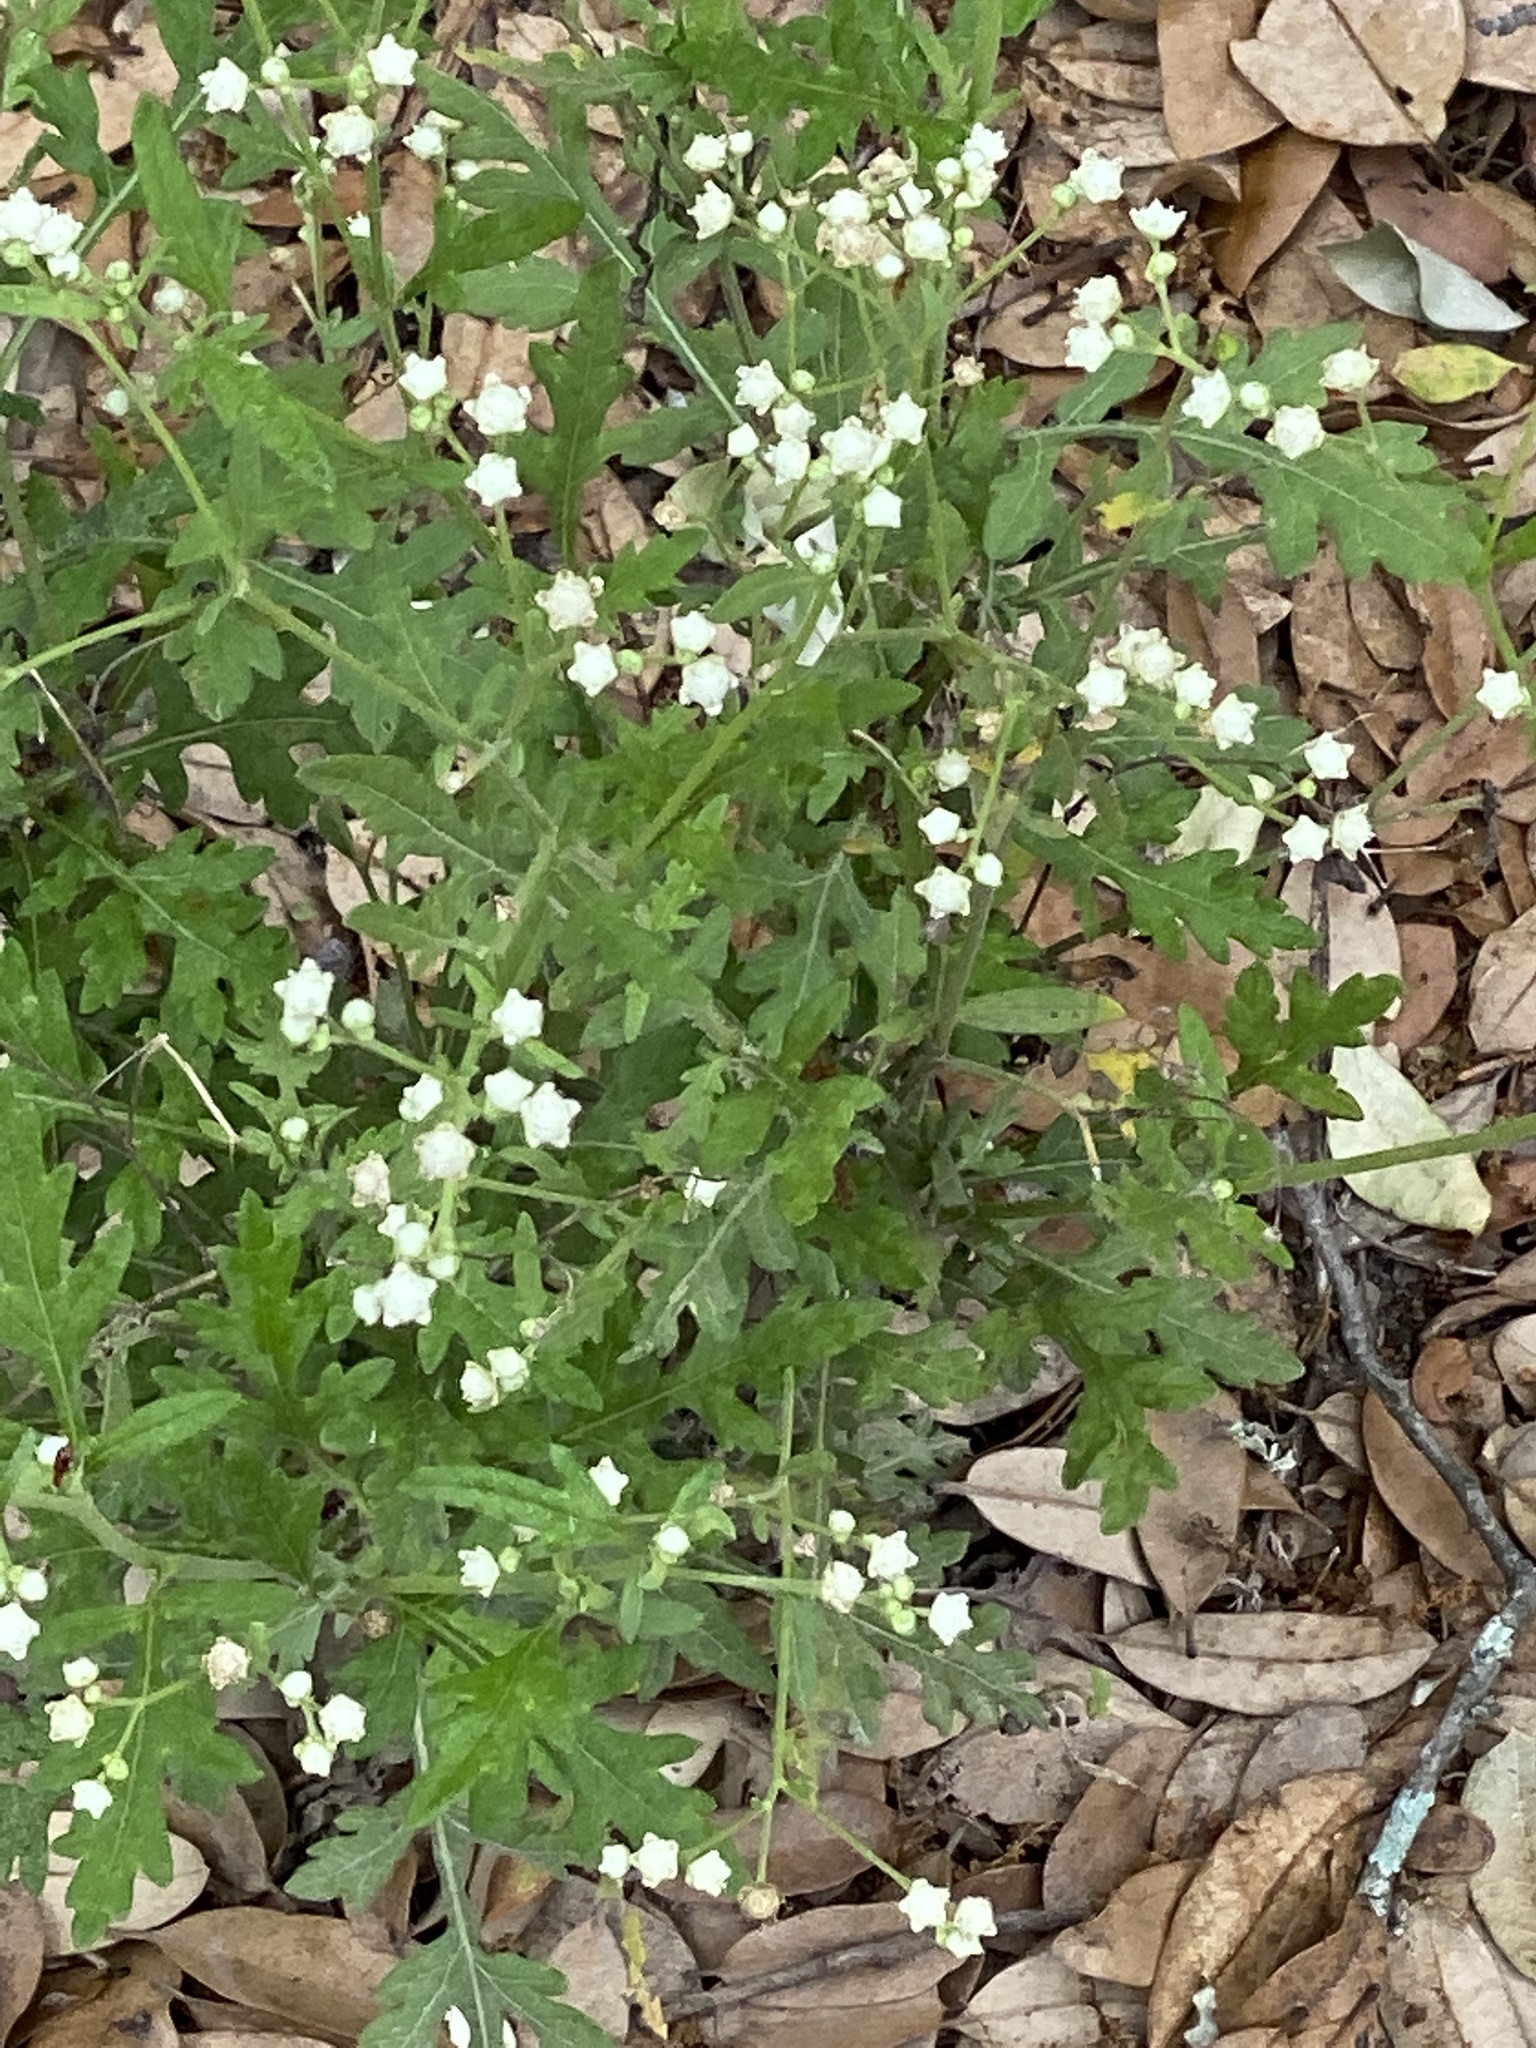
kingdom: Plantae
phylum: Tracheophyta
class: Magnoliopsida
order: Asterales
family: Asteraceae
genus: Parthenium
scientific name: Parthenium hysterophorus
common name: Santa maria feverfew
